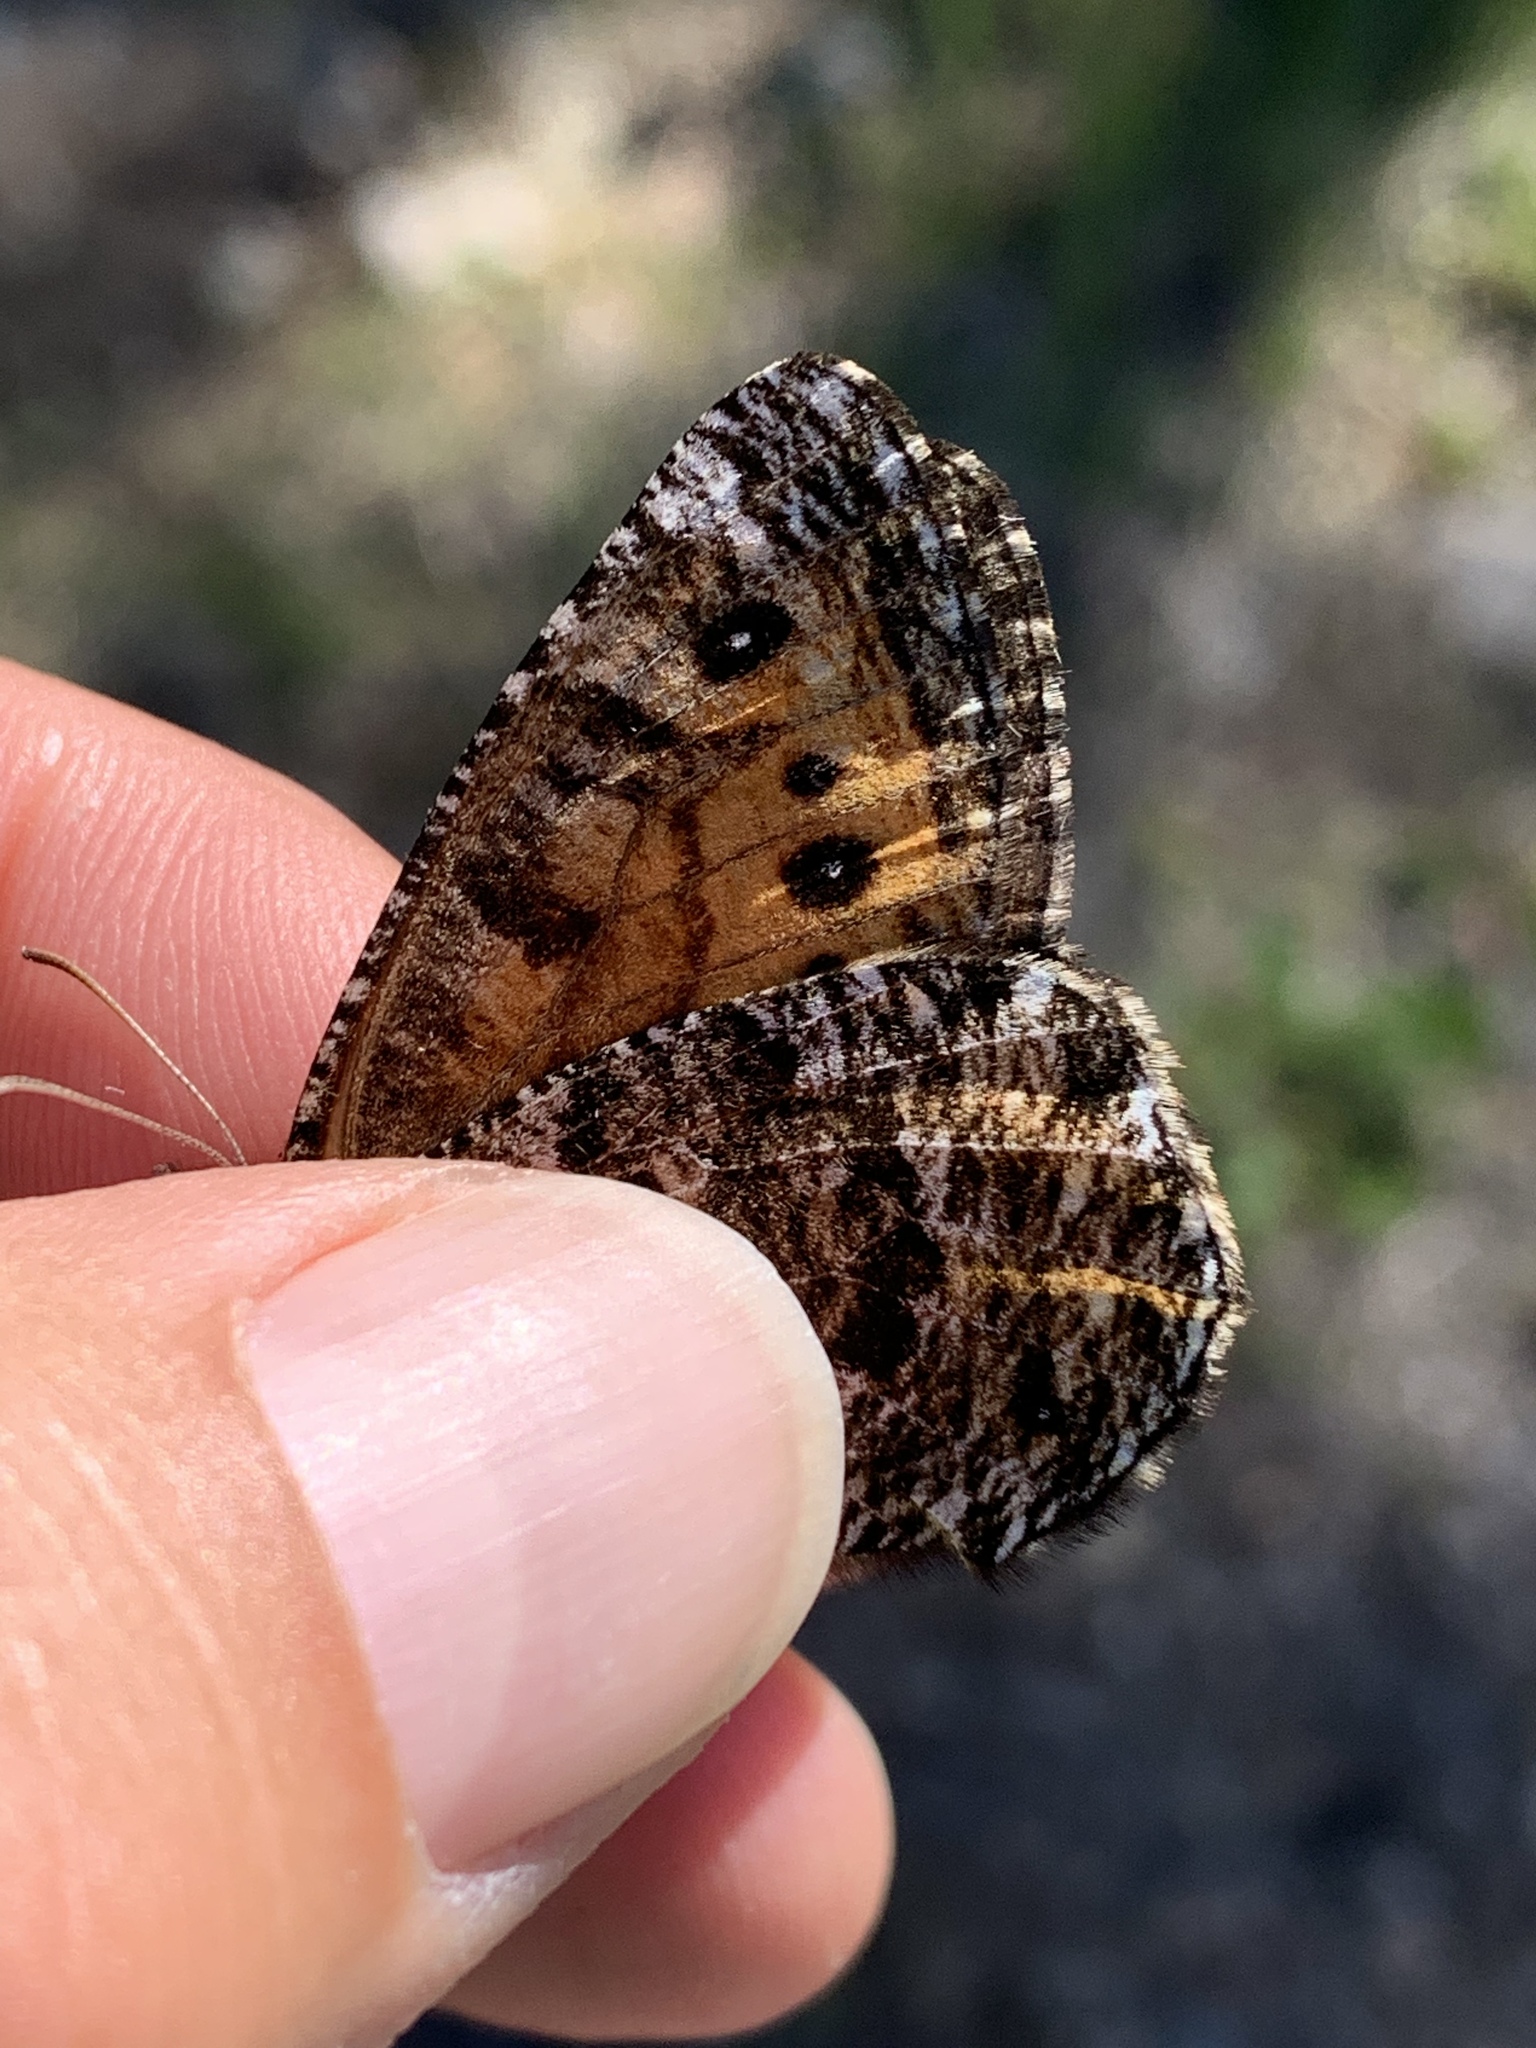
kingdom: Animalia
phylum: Arthropoda
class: Insecta
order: Lepidoptera
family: Nymphalidae
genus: Oeneis
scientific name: Oeneis chryxus
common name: Chryxus arctic
